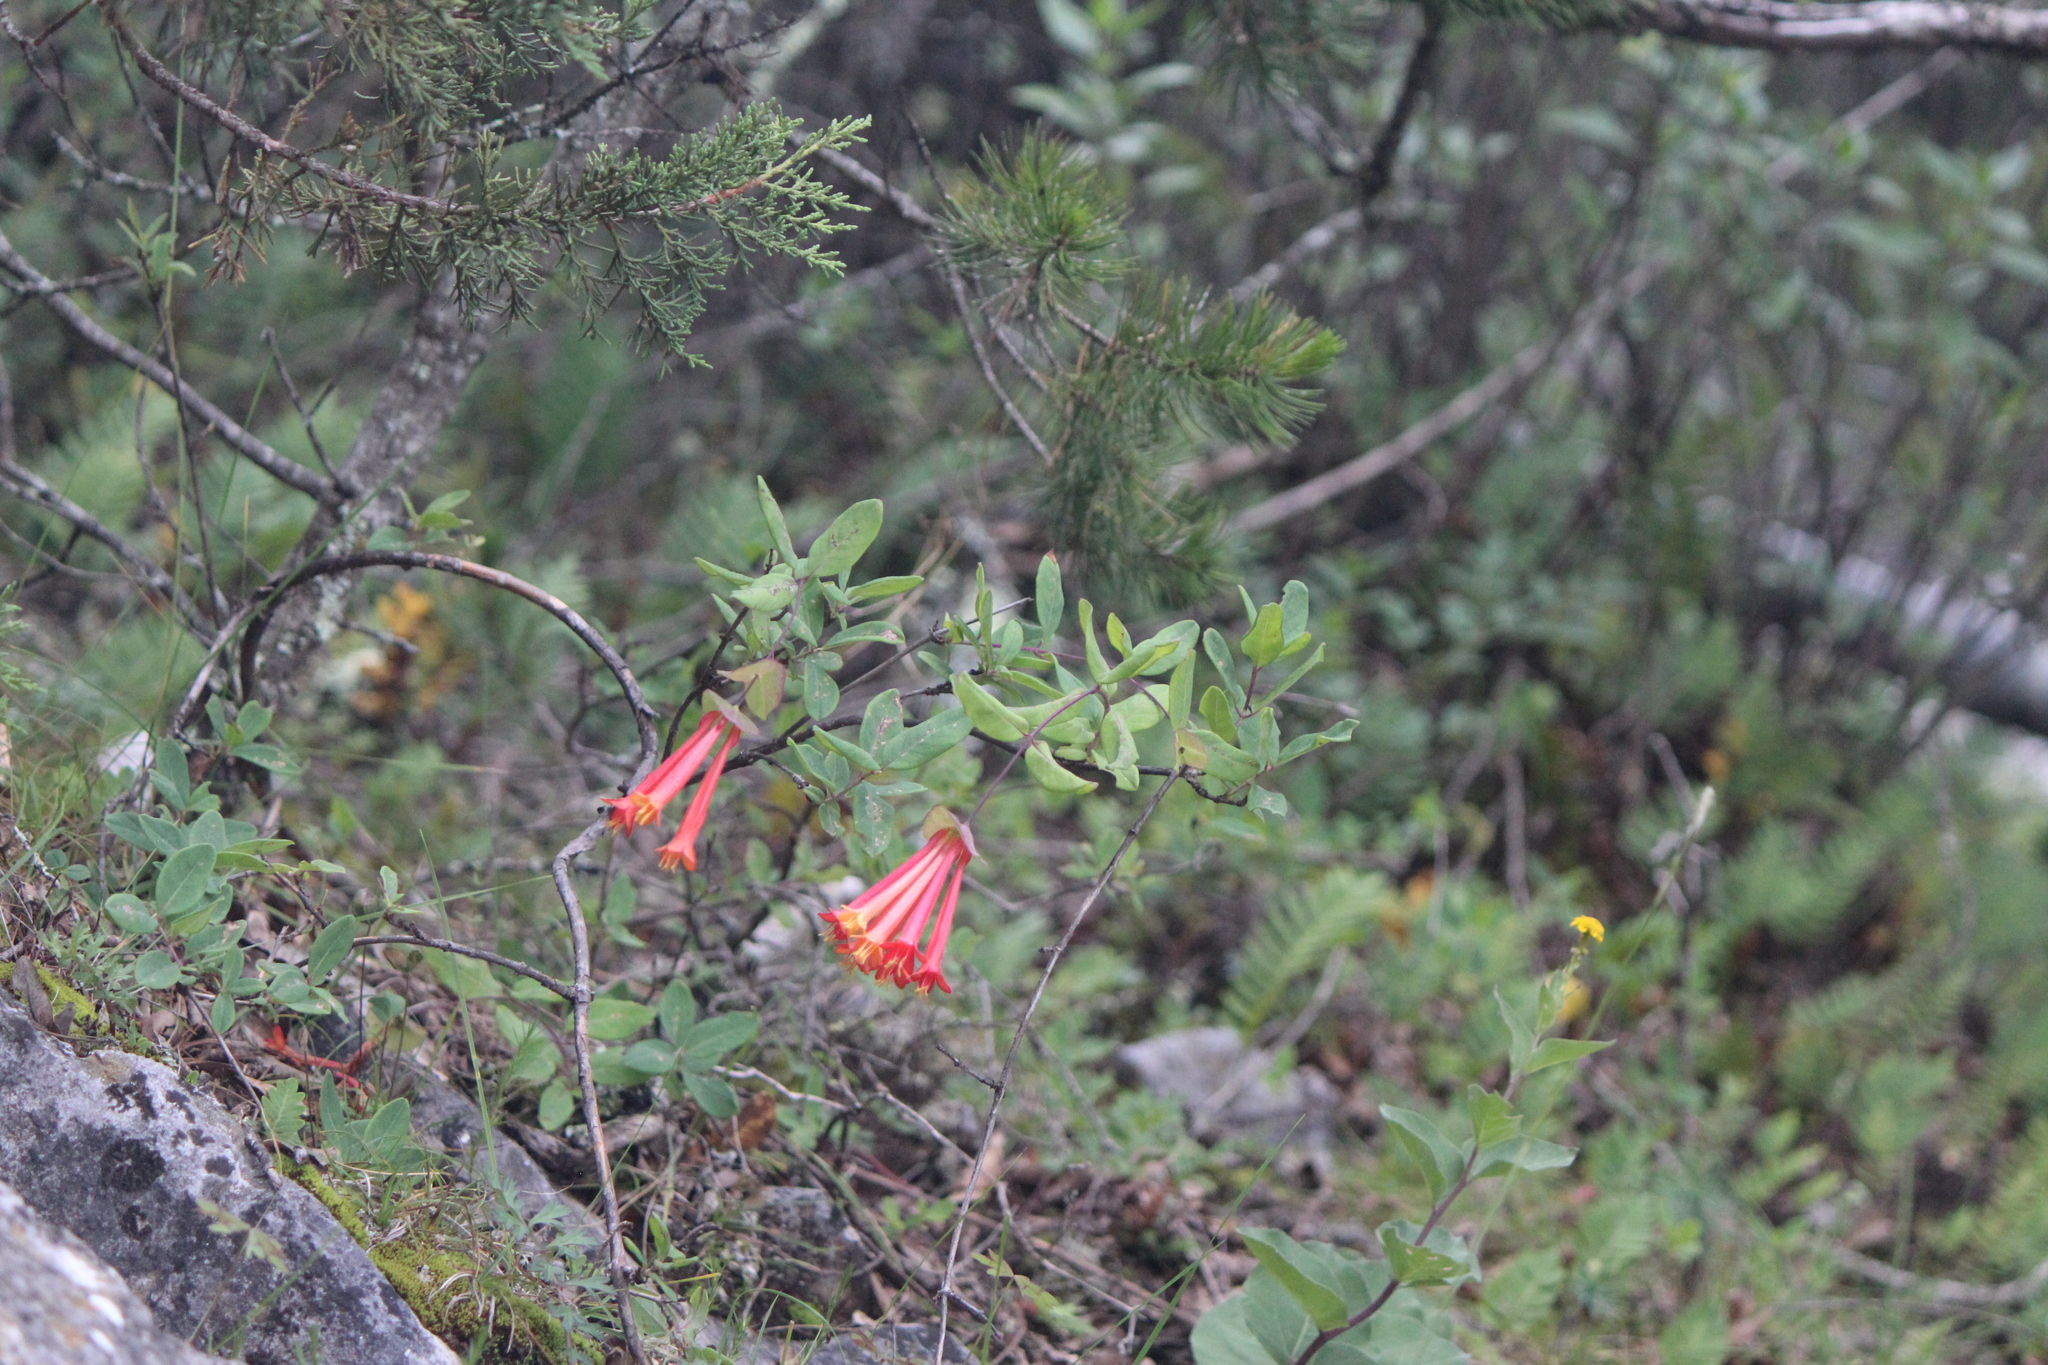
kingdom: Plantae
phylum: Tracheophyta
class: Magnoliopsida
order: Dipsacales
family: Caprifoliaceae
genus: Lonicera
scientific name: Lonicera pilosa
